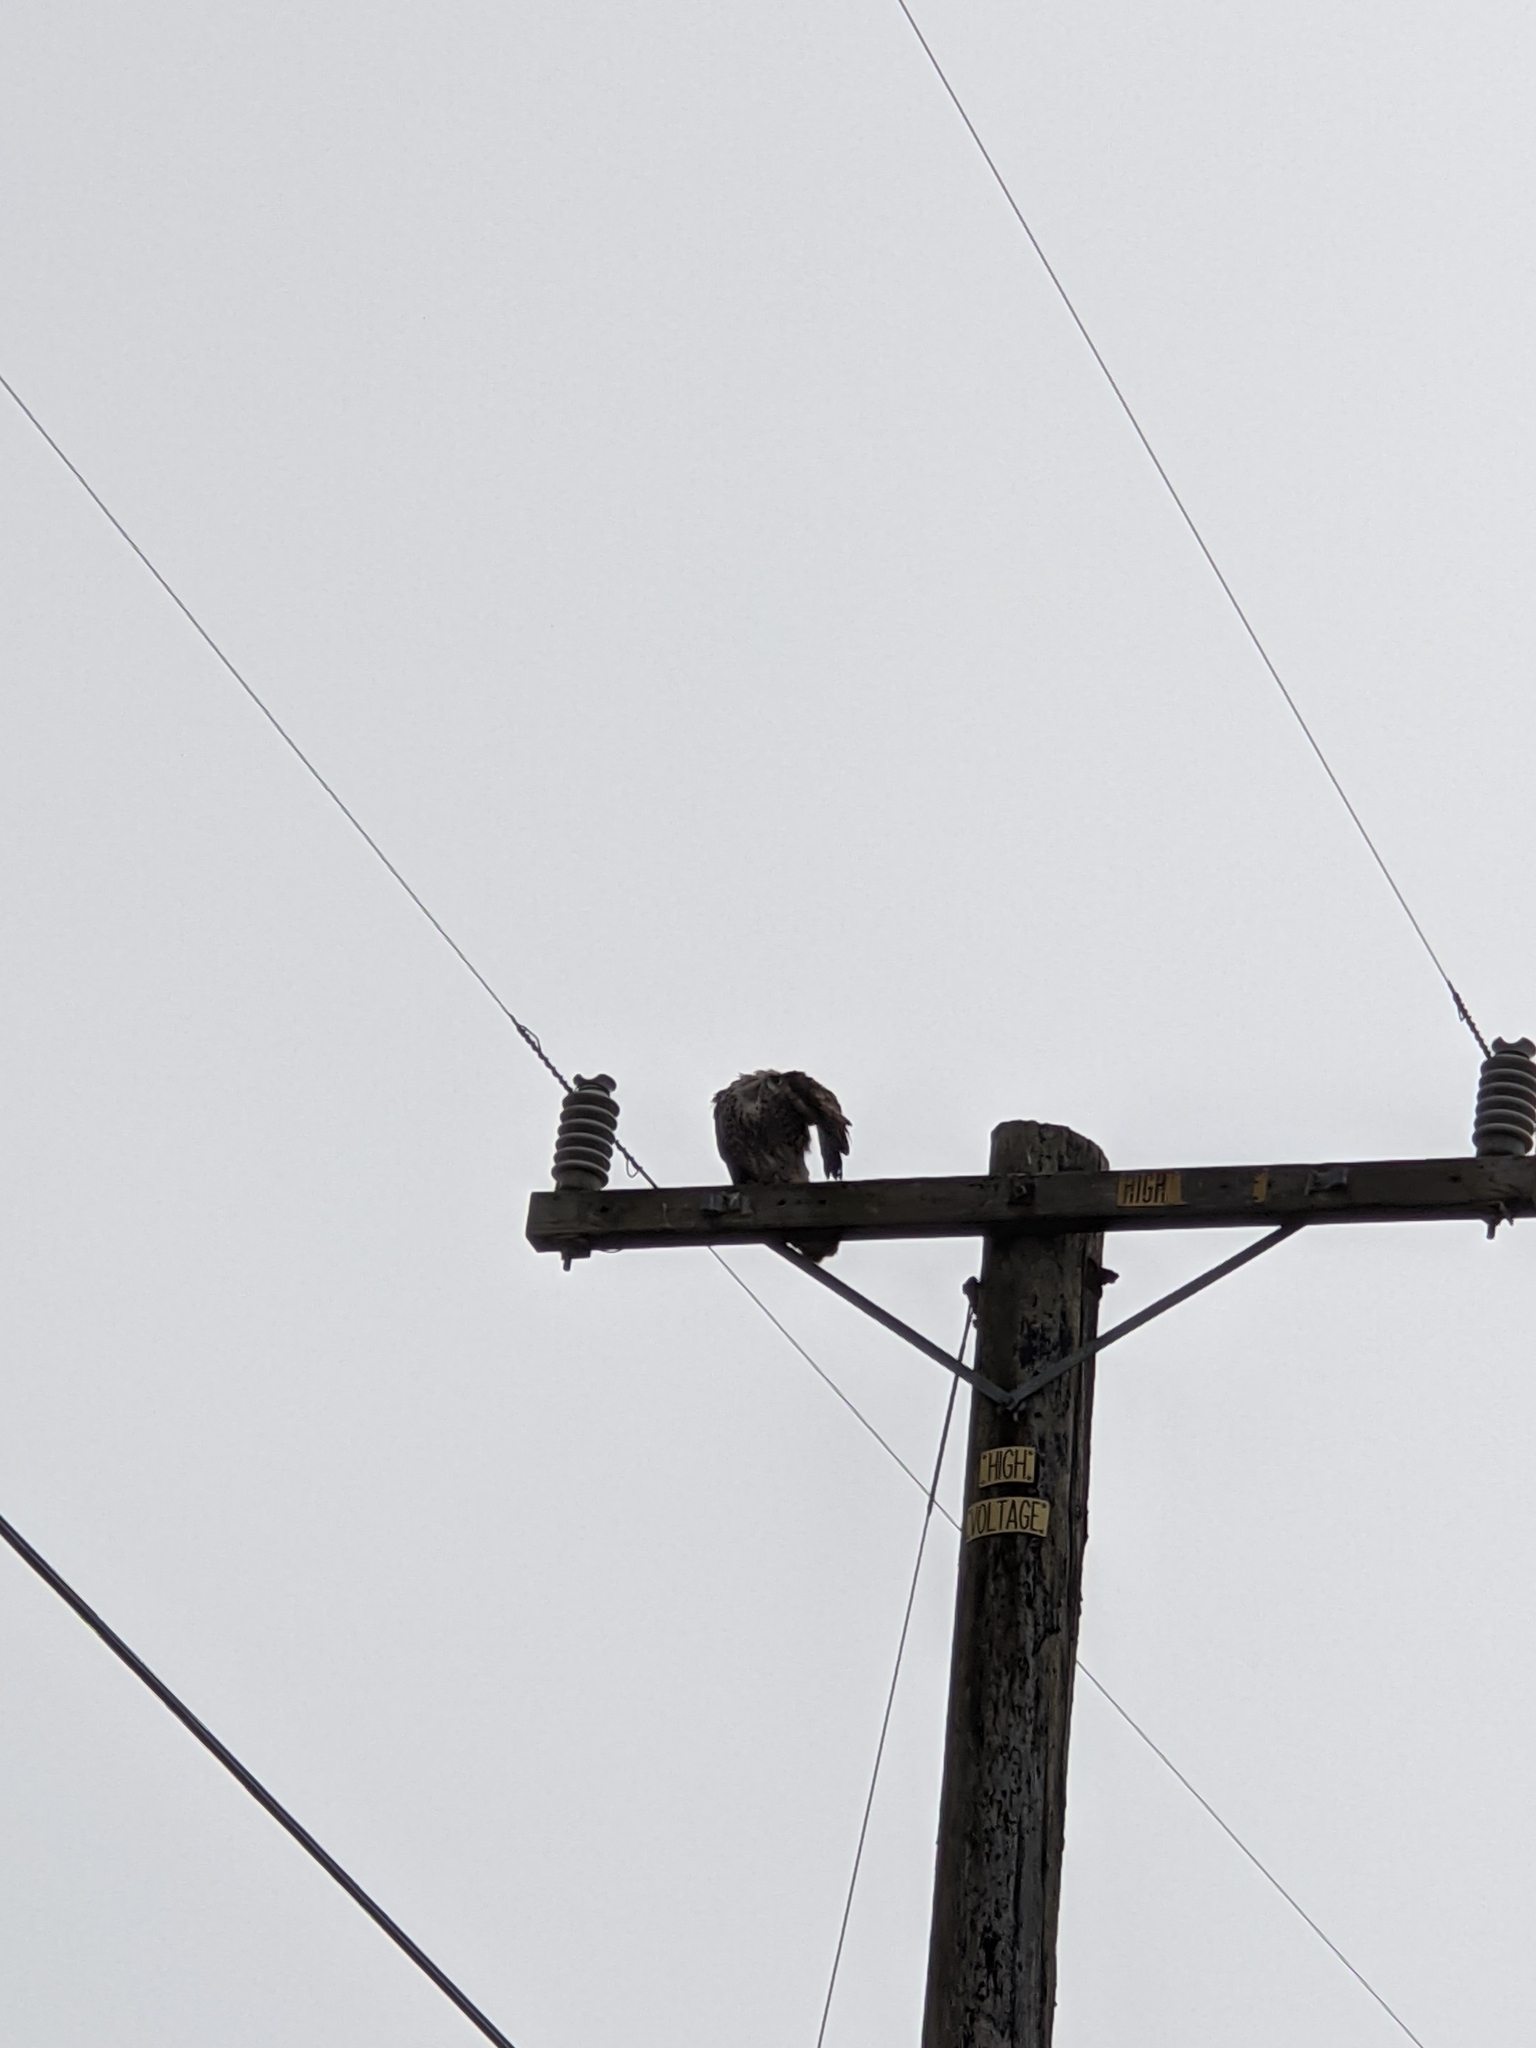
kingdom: Animalia
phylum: Chordata
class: Aves
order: Accipitriformes
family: Accipitridae
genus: Buteo
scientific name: Buteo jamaicensis
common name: Red-tailed hawk
